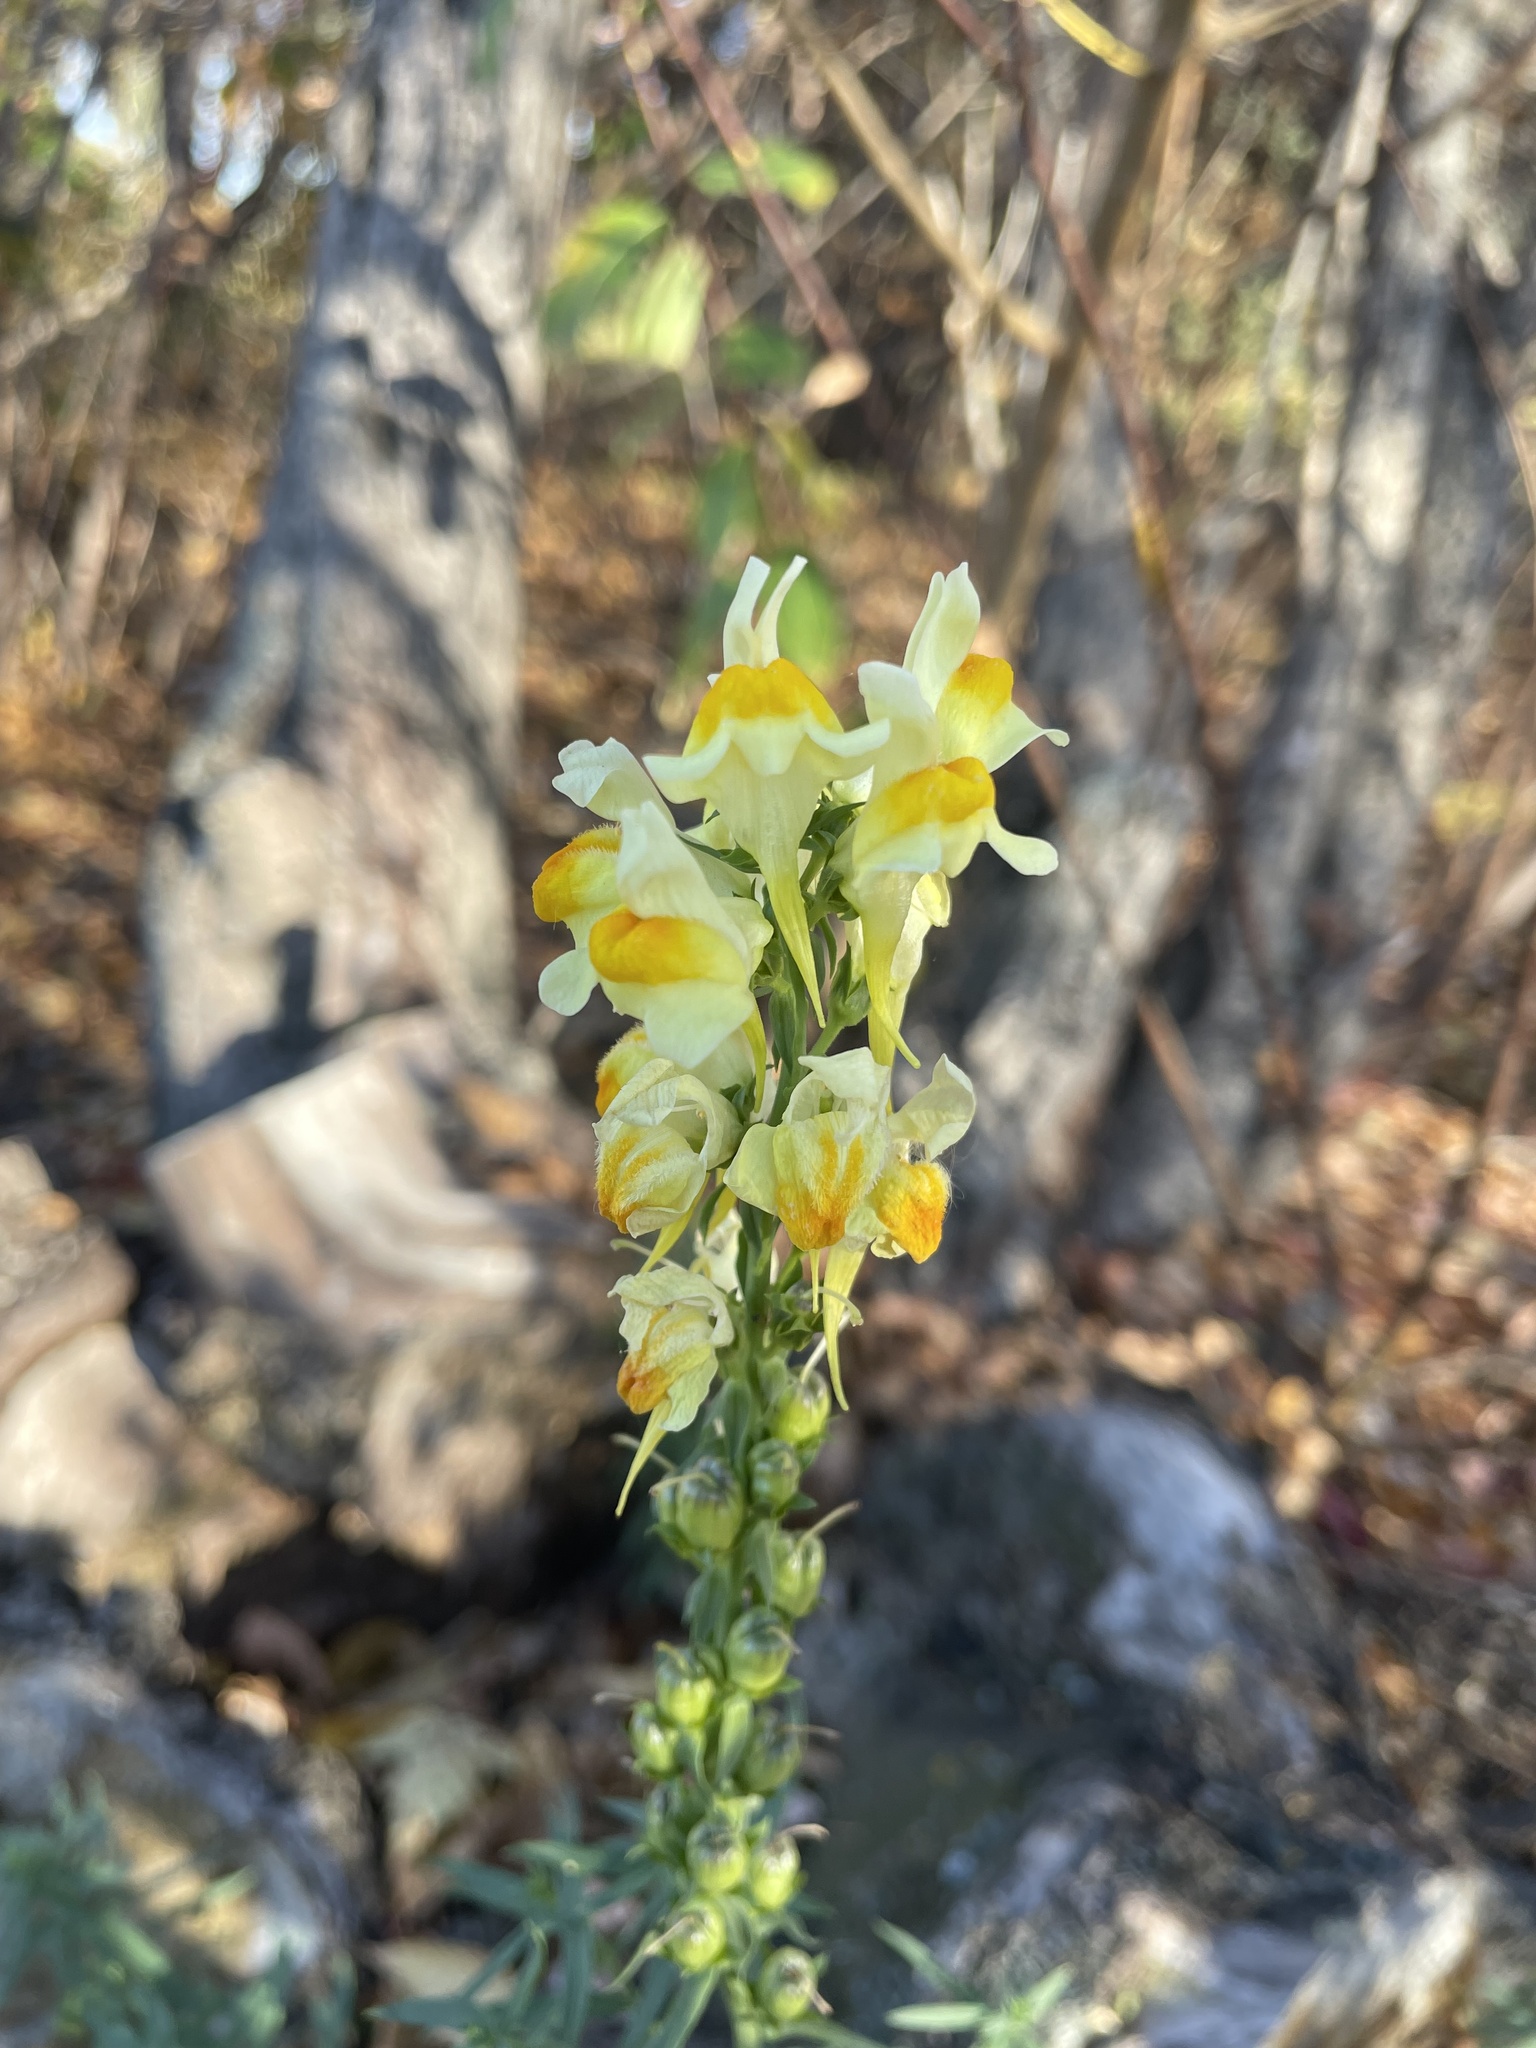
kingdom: Plantae
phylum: Tracheophyta
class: Magnoliopsida
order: Lamiales
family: Plantaginaceae
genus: Linaria
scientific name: Linaria vulgaris
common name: Butter and eggs
